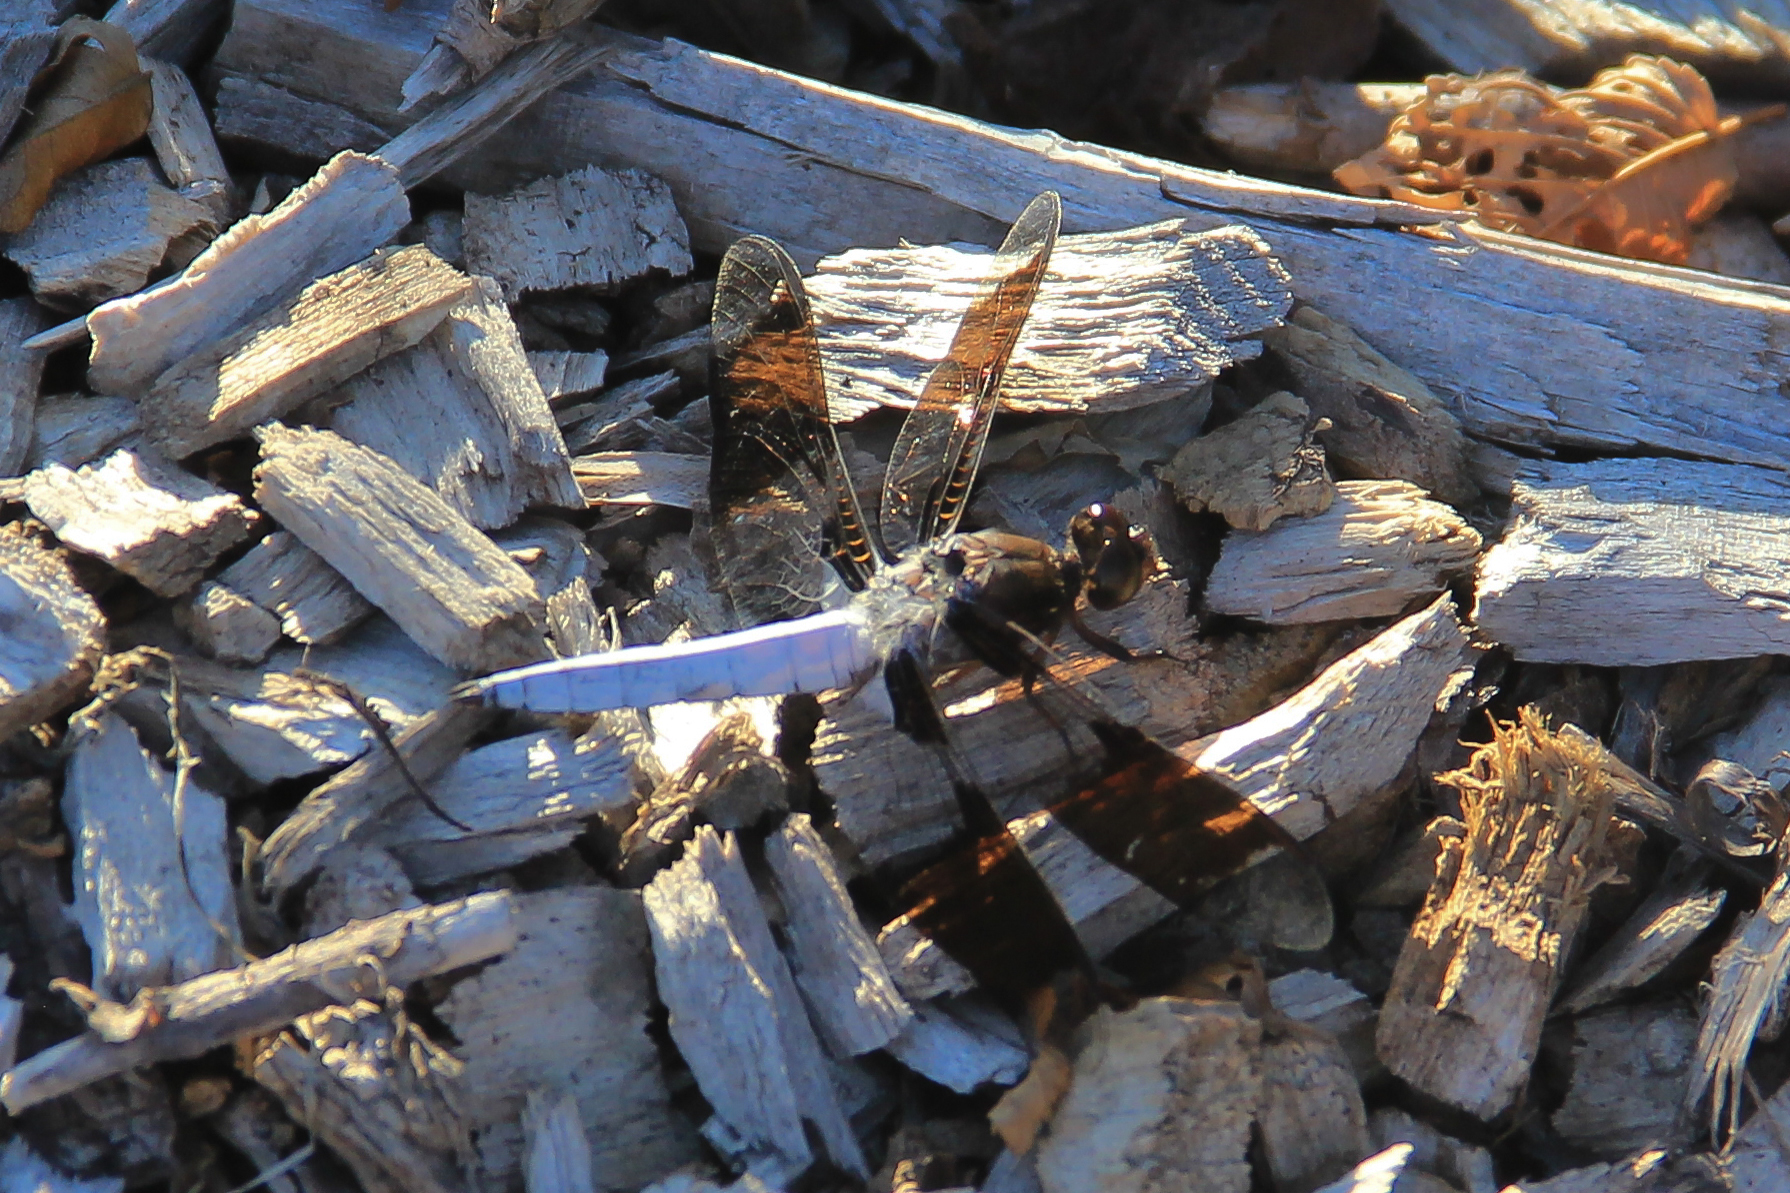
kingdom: Animalia
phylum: Arthropoda
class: Insecta
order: Odonata
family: Libellulidae
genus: Plathemis
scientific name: Plathemis lydia
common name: Common whitetail
